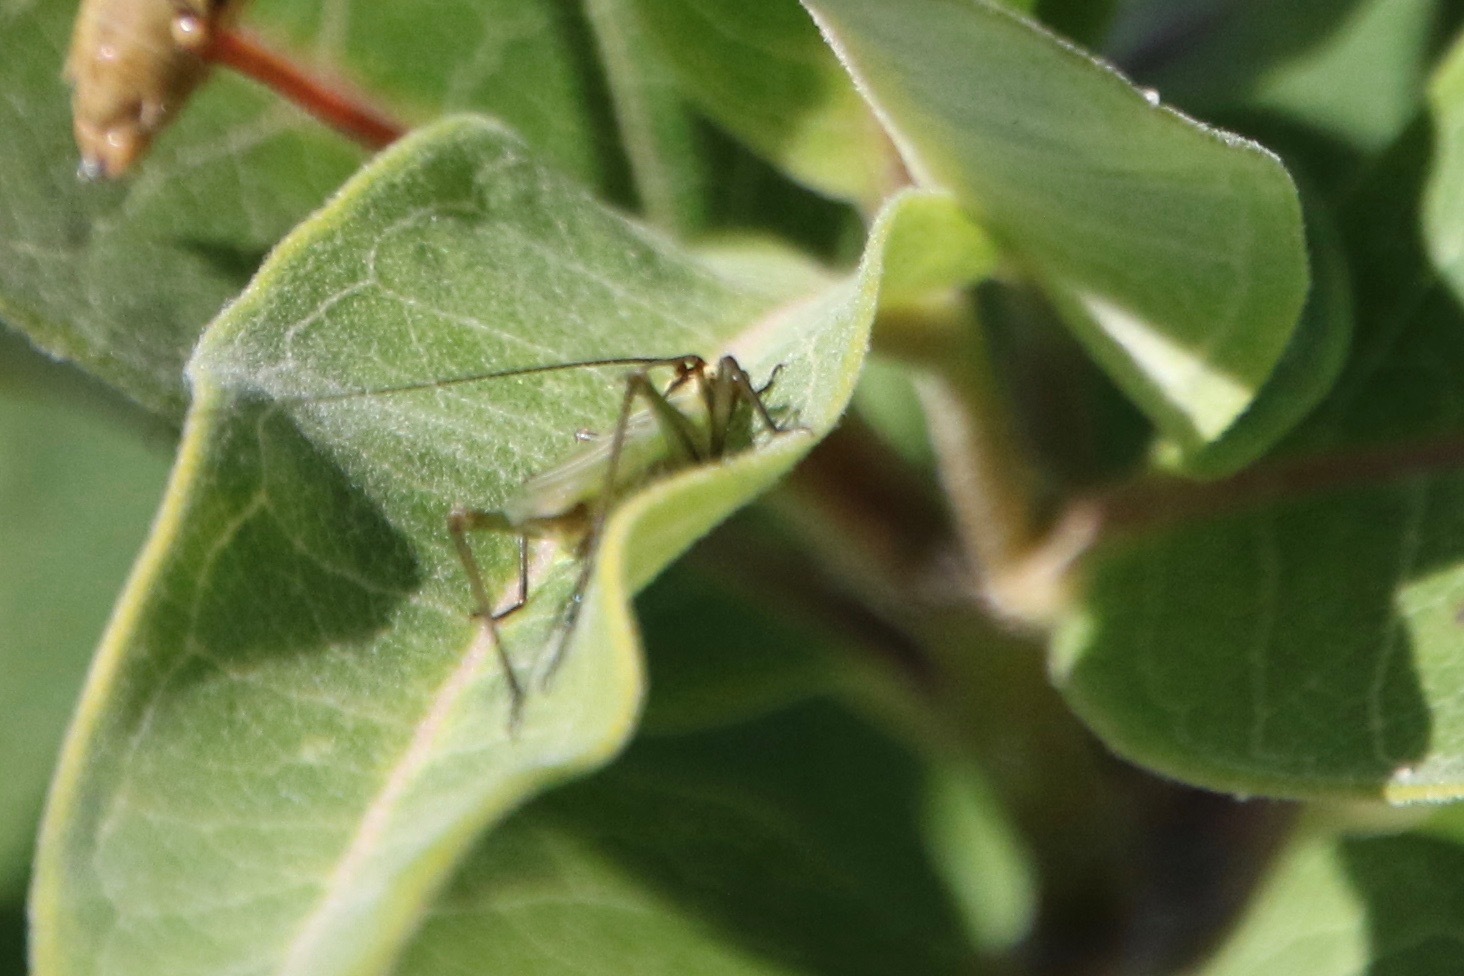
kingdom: Animalia
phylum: Arthropoda
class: Insecta
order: Orthoptera
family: Gryllidae
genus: Oecanthus
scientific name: Oecanthus nigricornis
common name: Black-horned tree cricket
